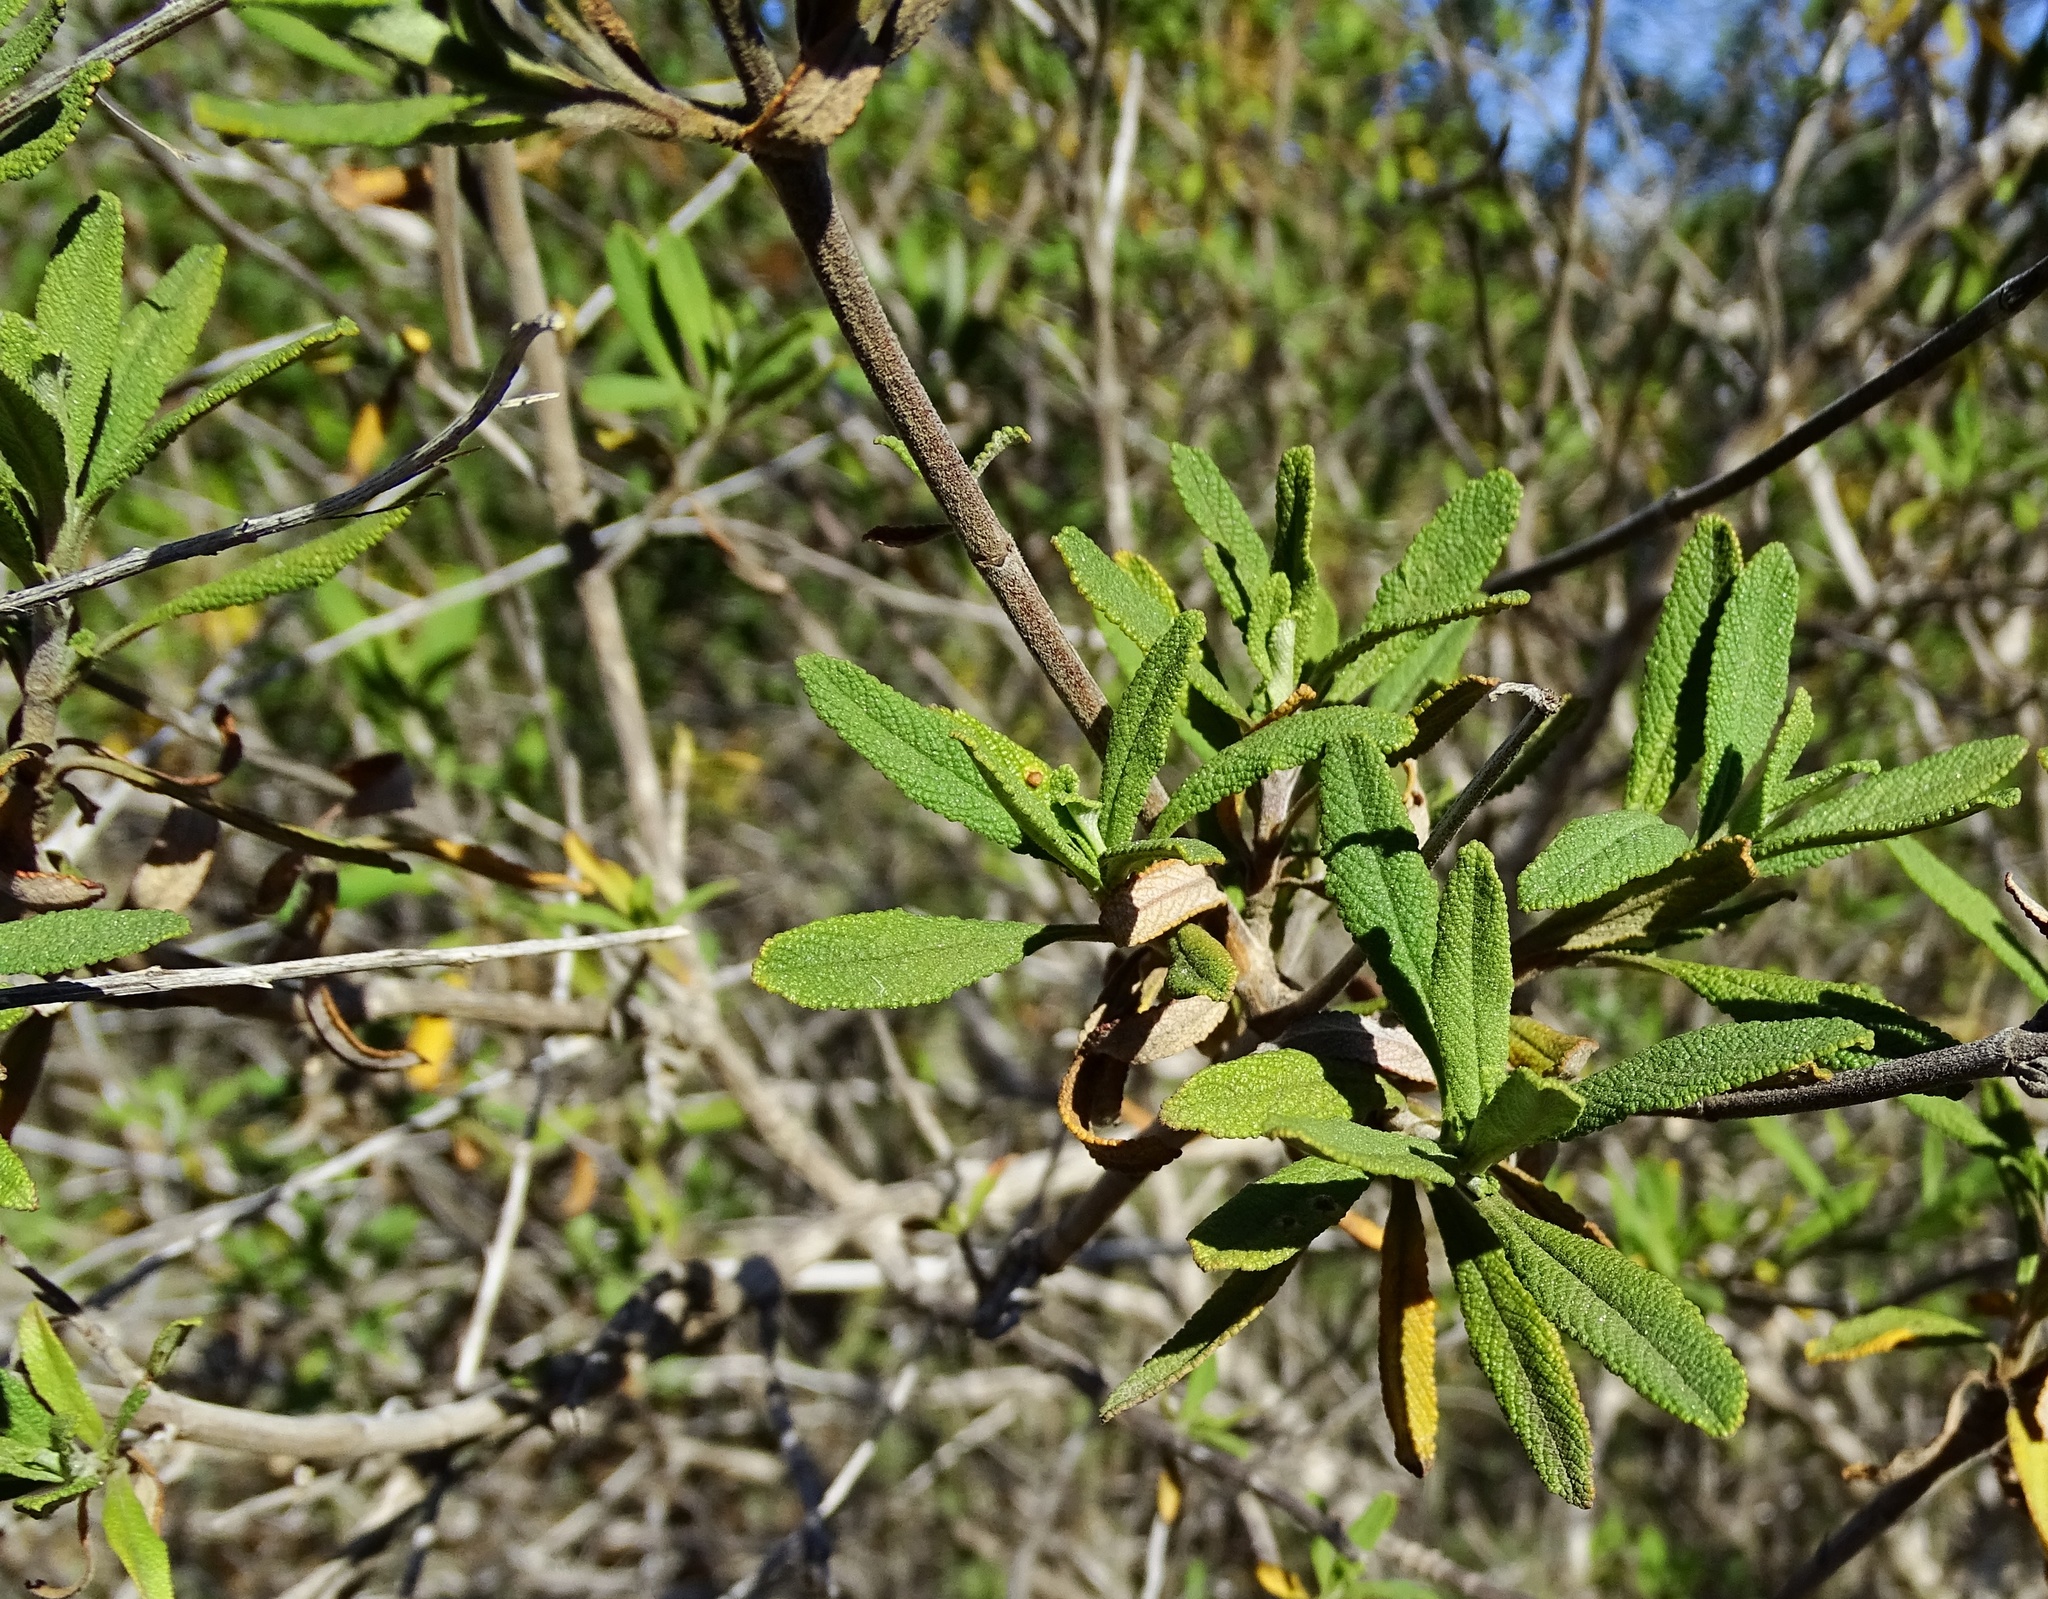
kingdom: Plantae
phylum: Tracheophyta
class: Magnoliopsida
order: Lamiales
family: Lamiaceae
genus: Salvia
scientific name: Salvia mellifera
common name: Black sage
